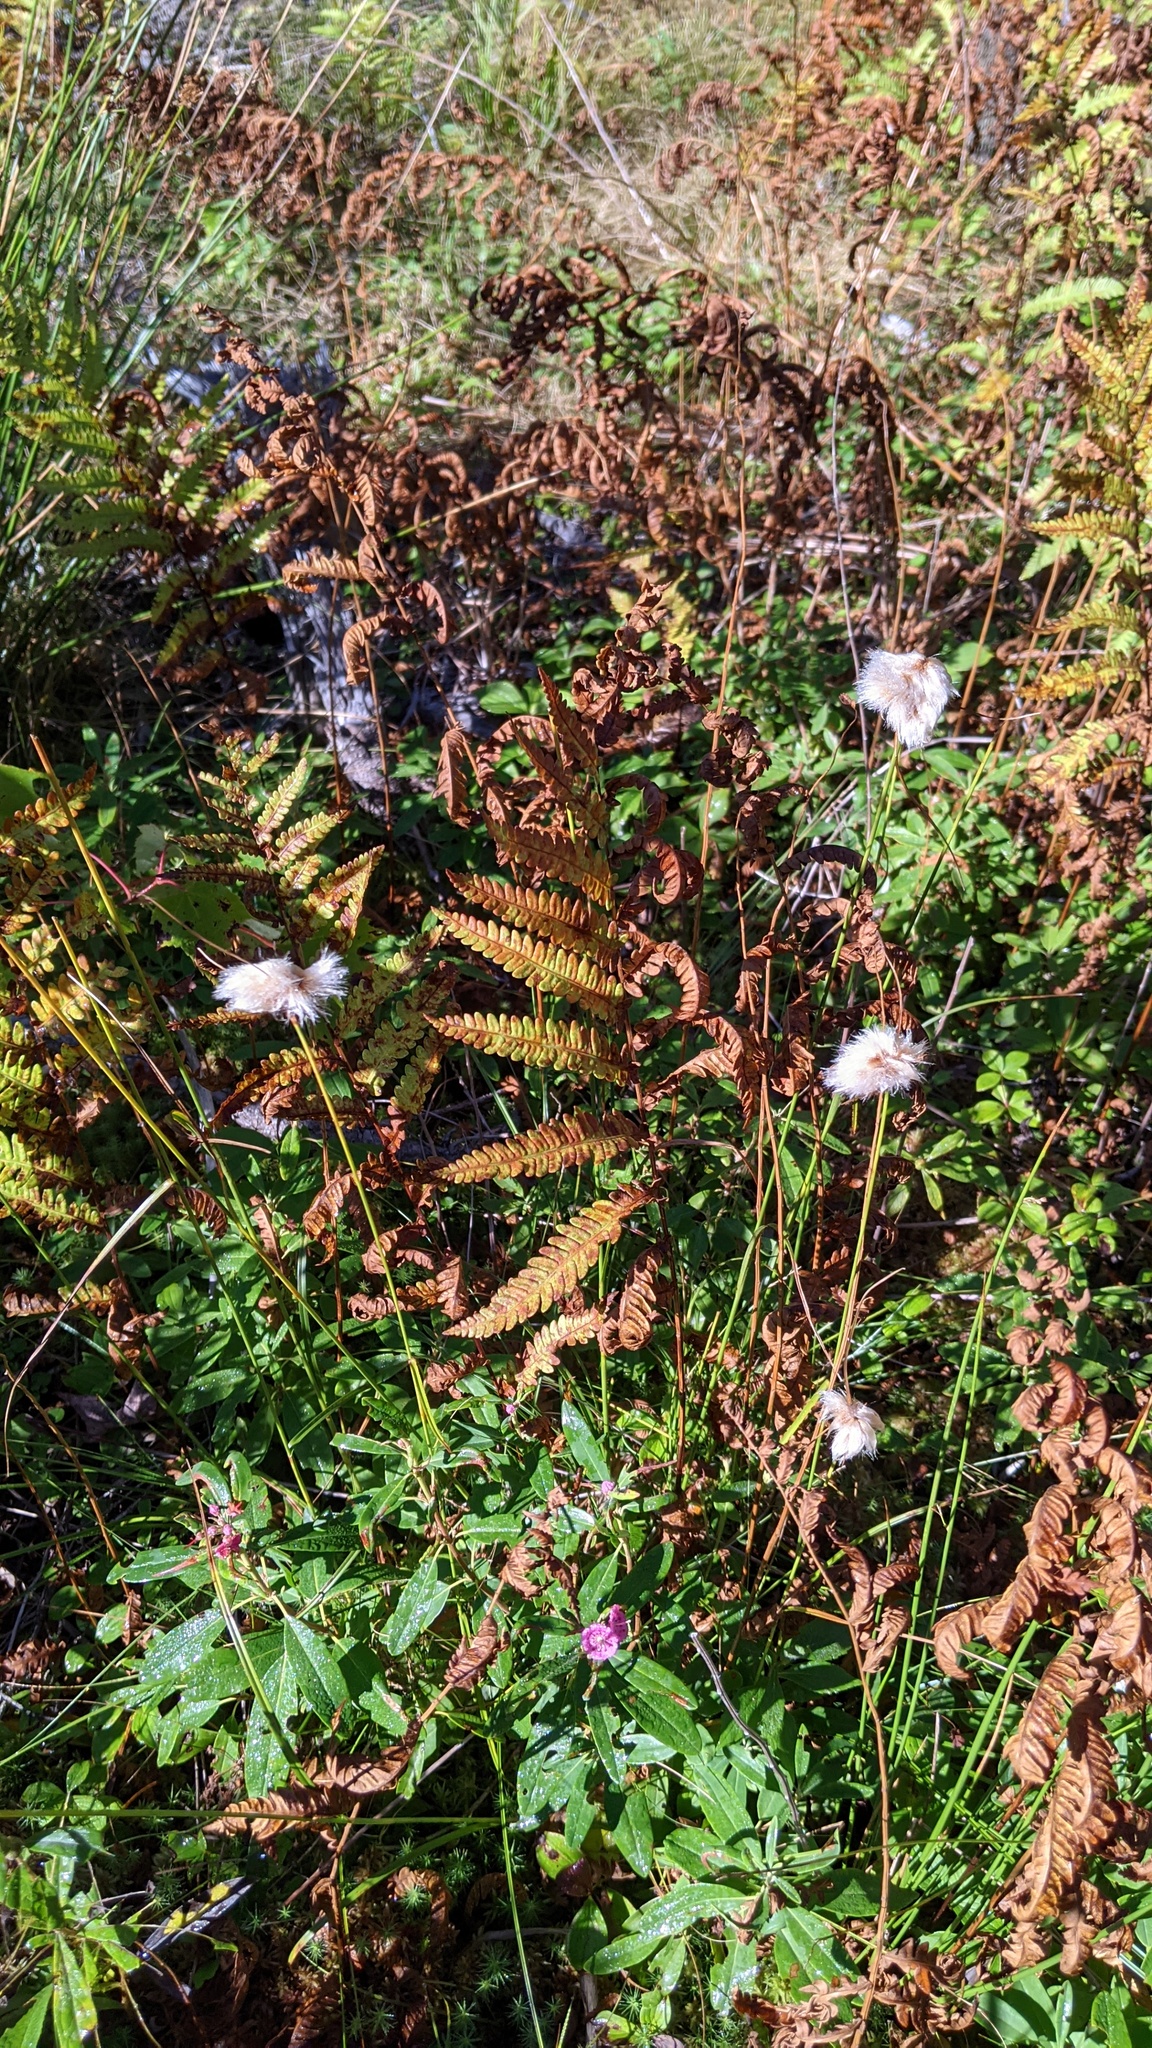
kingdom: Plantae
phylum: Tracheophyta
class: Polypodiopsida
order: Osmundales
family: Osmundaceae
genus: Osmundastrum
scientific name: Osmundastrum cinnamomeum
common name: Cinnamon fern
